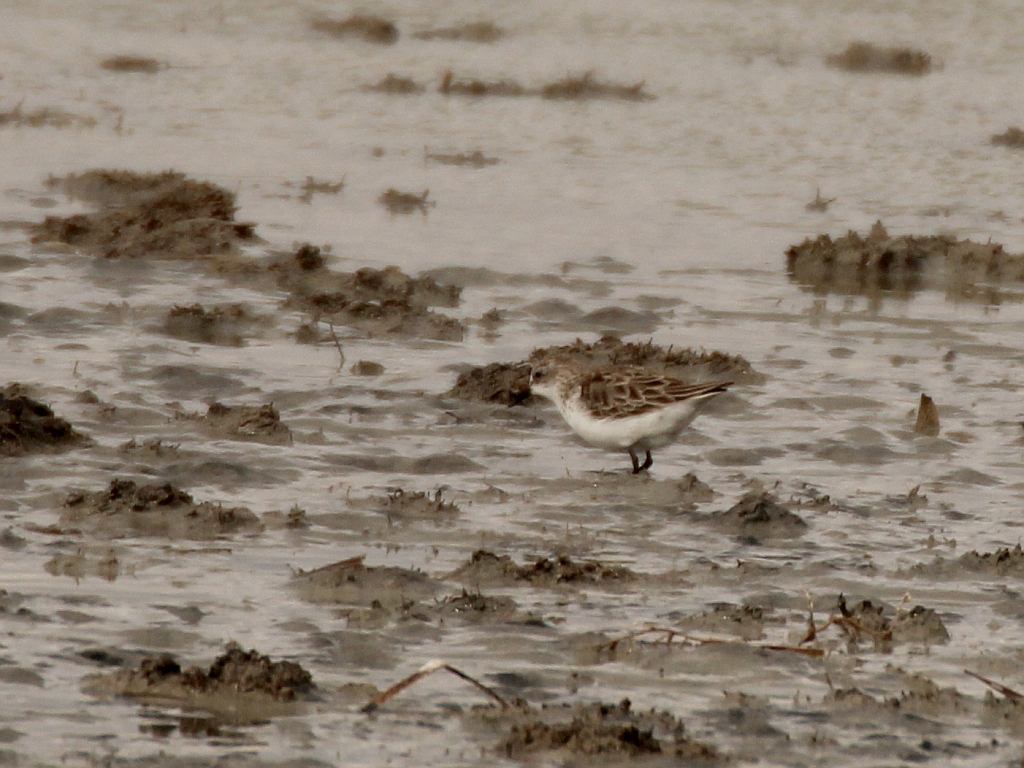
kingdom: Animalia
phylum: Chordata
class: Aves
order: Charadriiformes
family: Scolopacidae
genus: Calidris
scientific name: Calidris minuta
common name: Little stint
